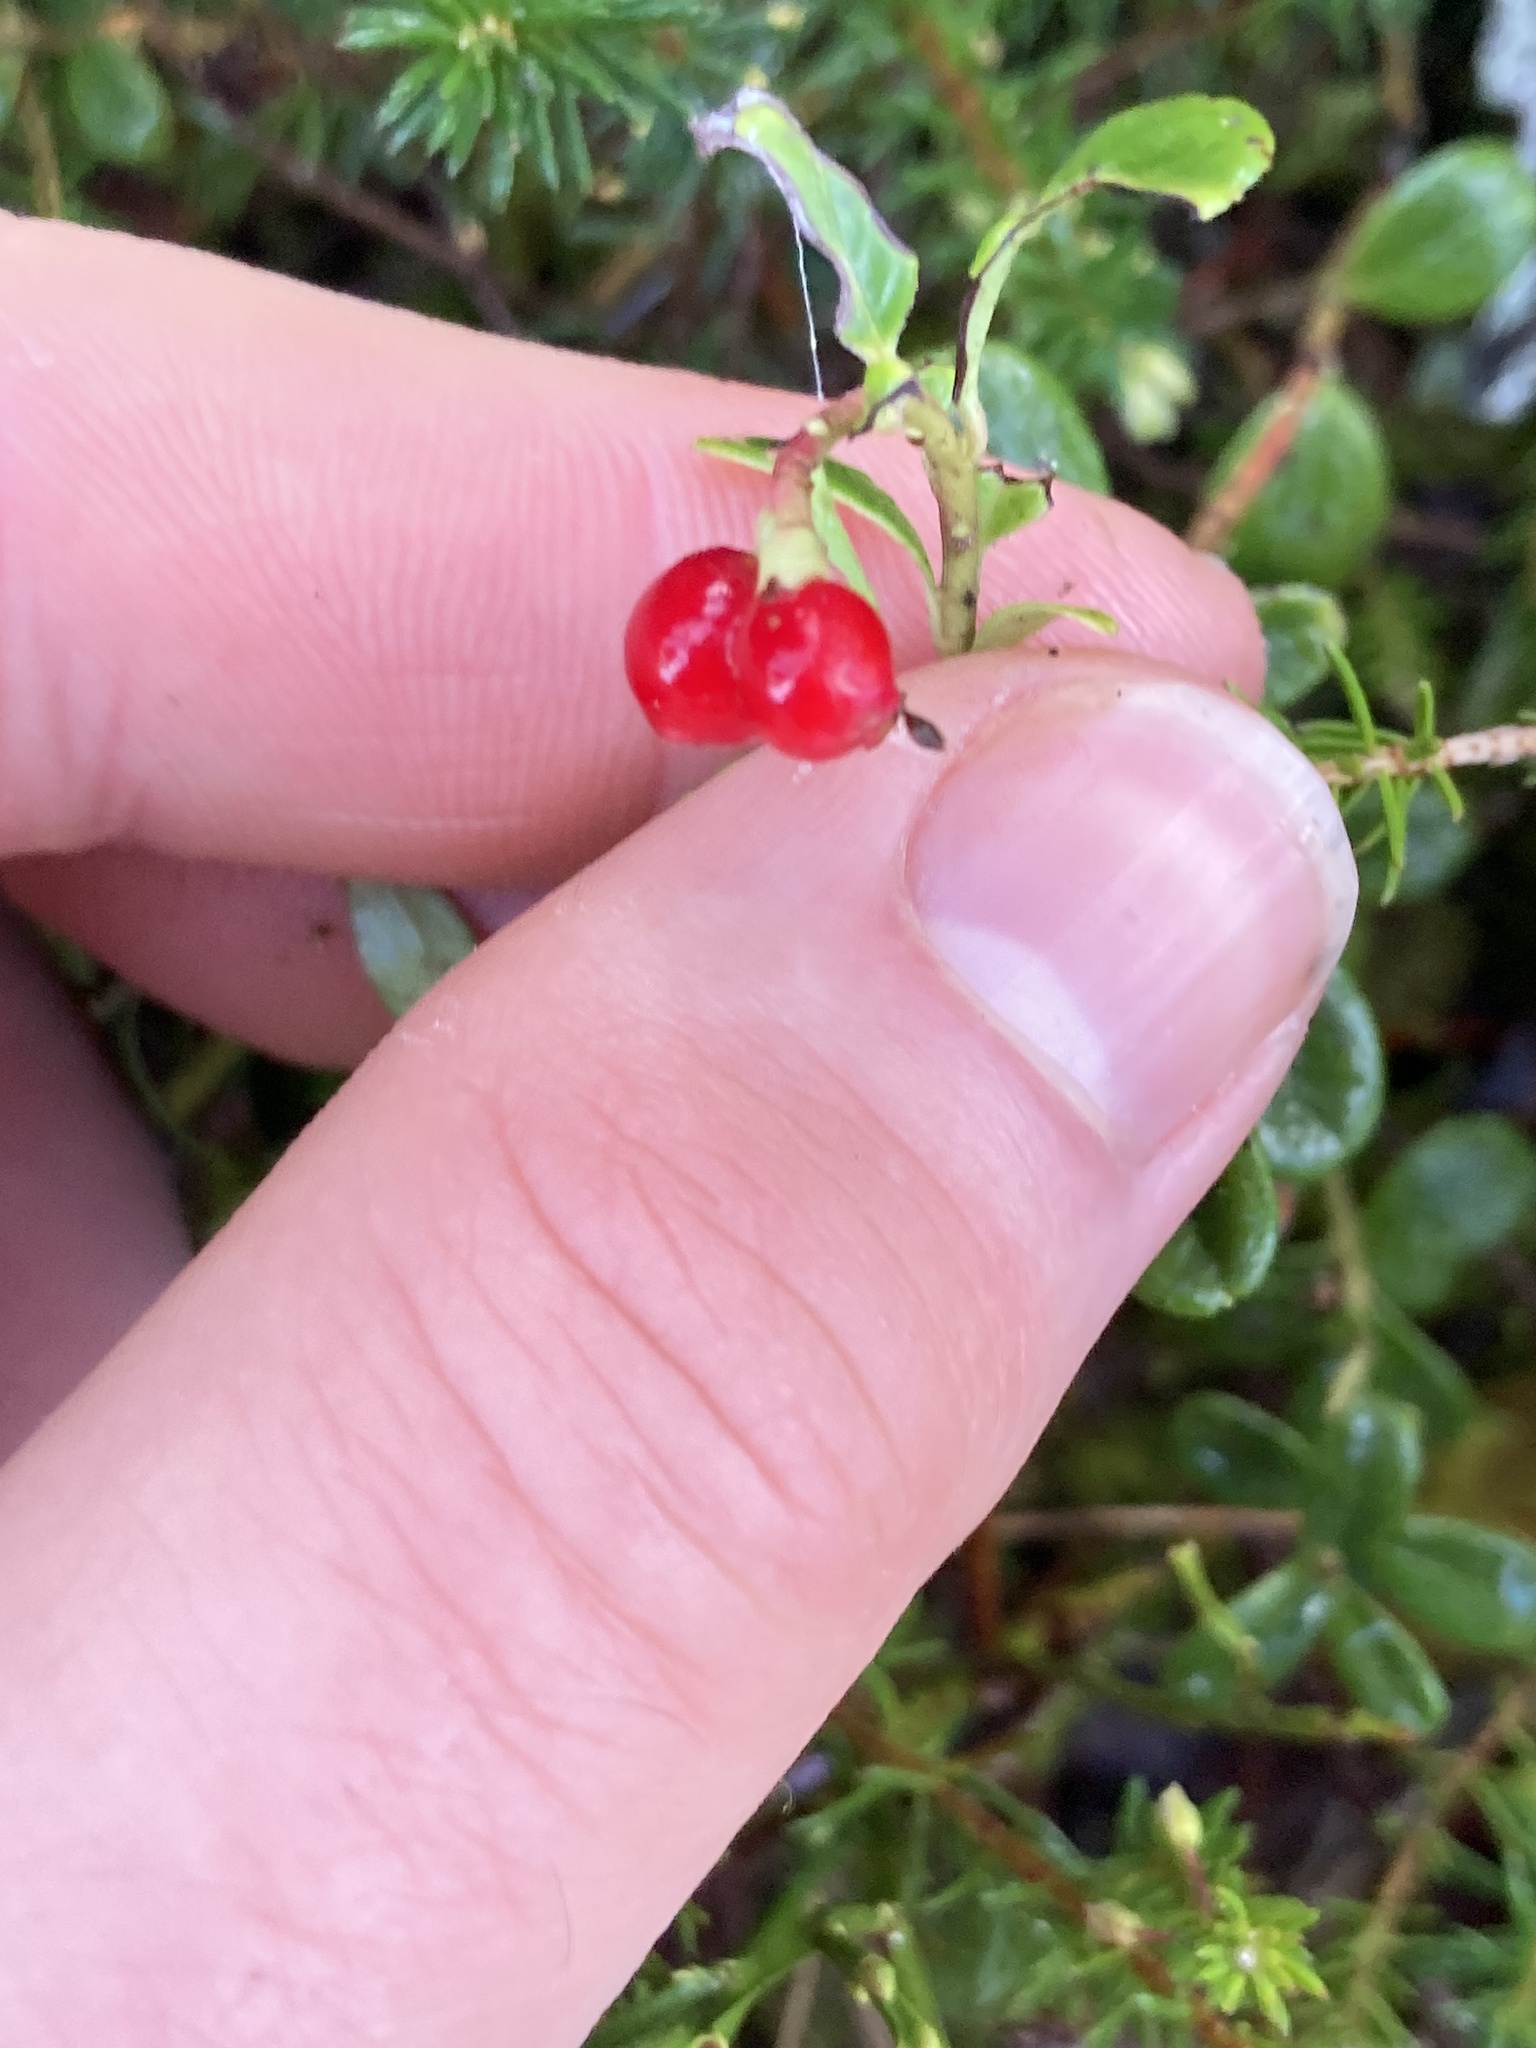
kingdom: Plantae
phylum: Tracheophyta
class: Magnoliopsida
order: Ericales
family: Ericaceae
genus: Vaccinium
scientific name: Vaccinium vitis-idaea
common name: Cowberry
